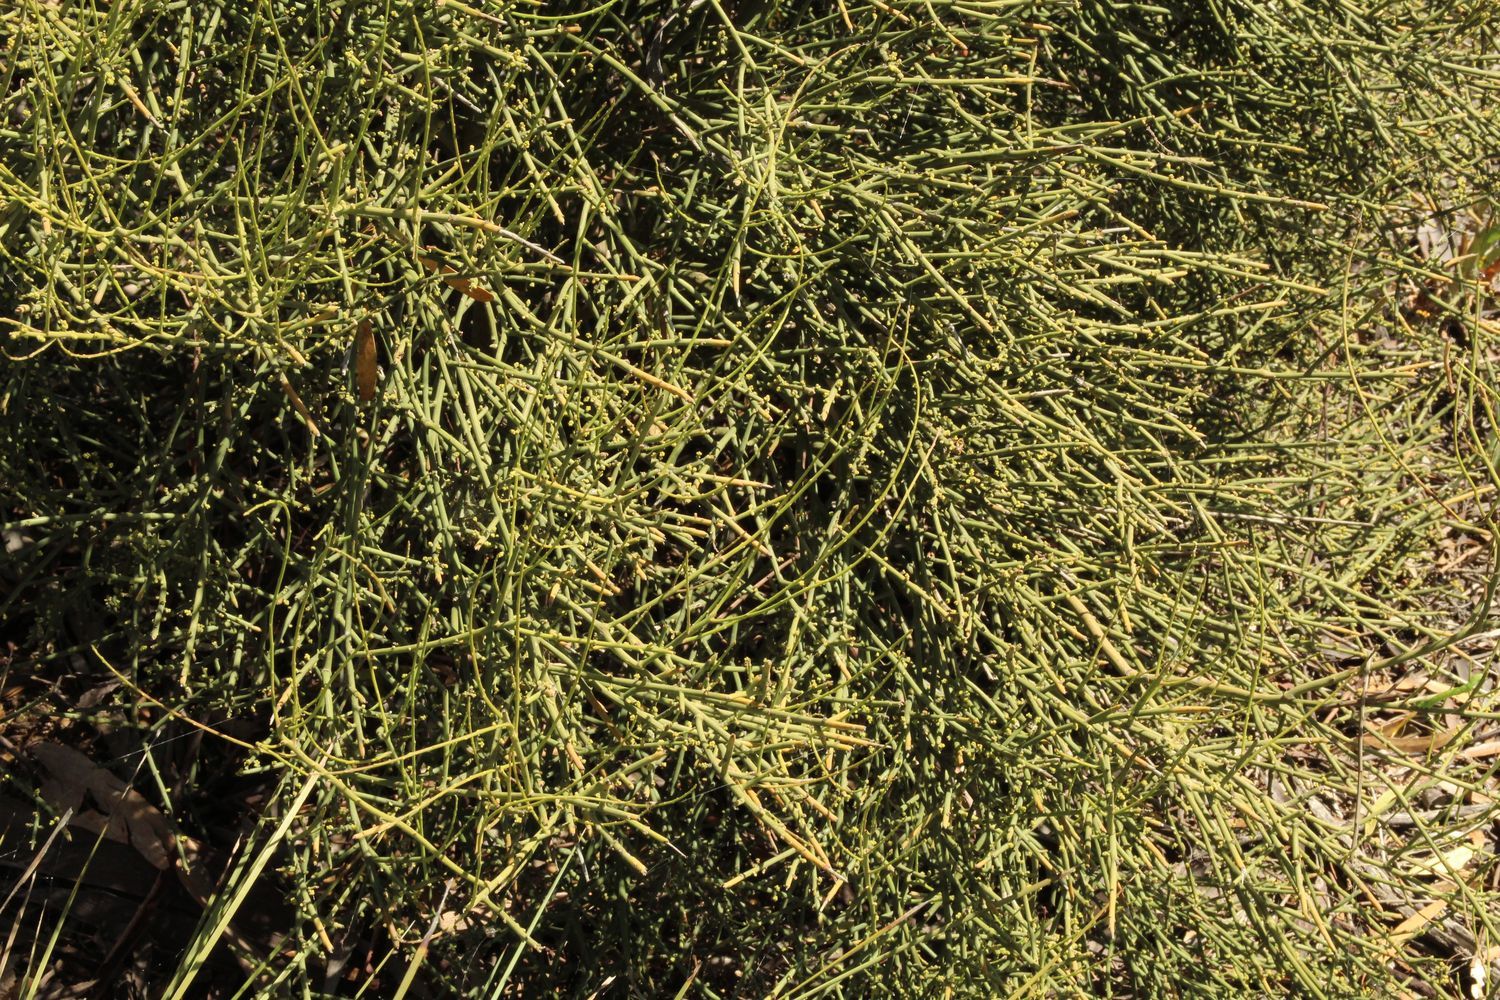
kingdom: Plantae
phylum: Tracheophyta
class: Magnoliopsida
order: Santalales
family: Santalaceae
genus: Exocarpos
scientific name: Exocarpos aphyllus
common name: Leafless ballart
